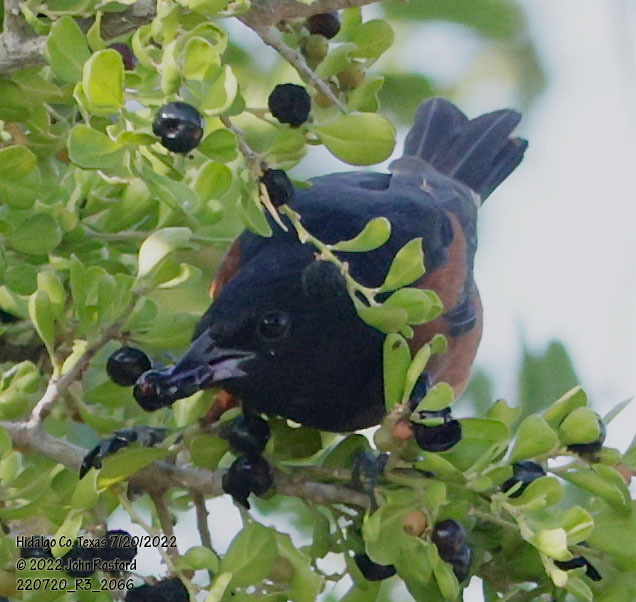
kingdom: Animalia
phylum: Chordata
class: Aves
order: Passeriformes
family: Icteridae
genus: Icterus
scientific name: Icterus spurius
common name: Orchard oriole
